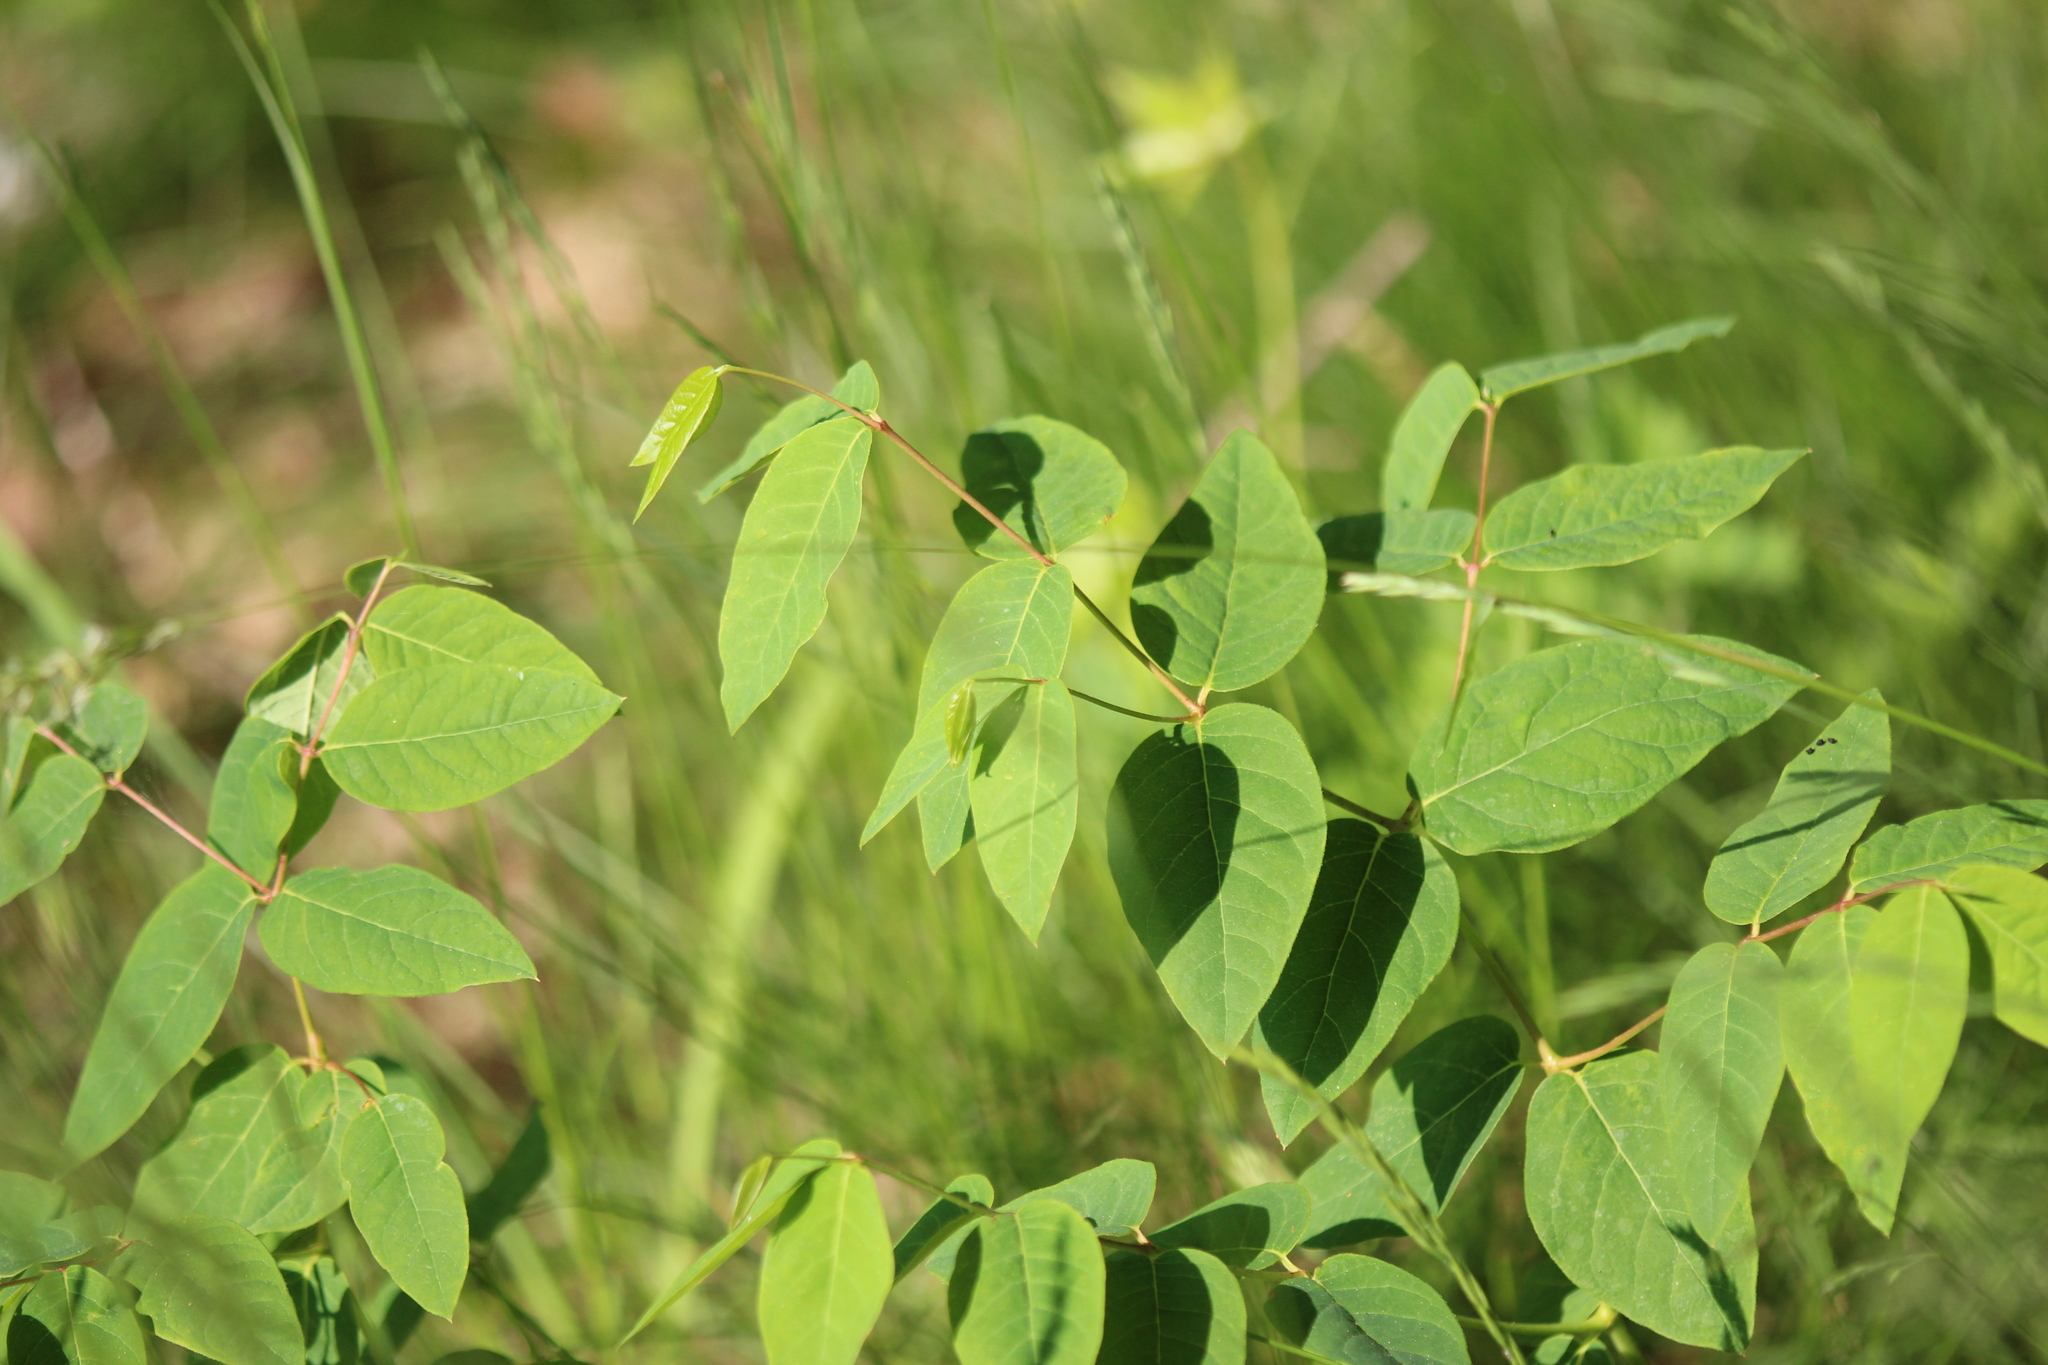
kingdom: Plantae
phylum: Tracheophyta
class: Magnoliopsida
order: Gentianales
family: Apocynaceae
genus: Apocynum
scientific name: Apocynum androsaemifolium
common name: Spreading dogbane
